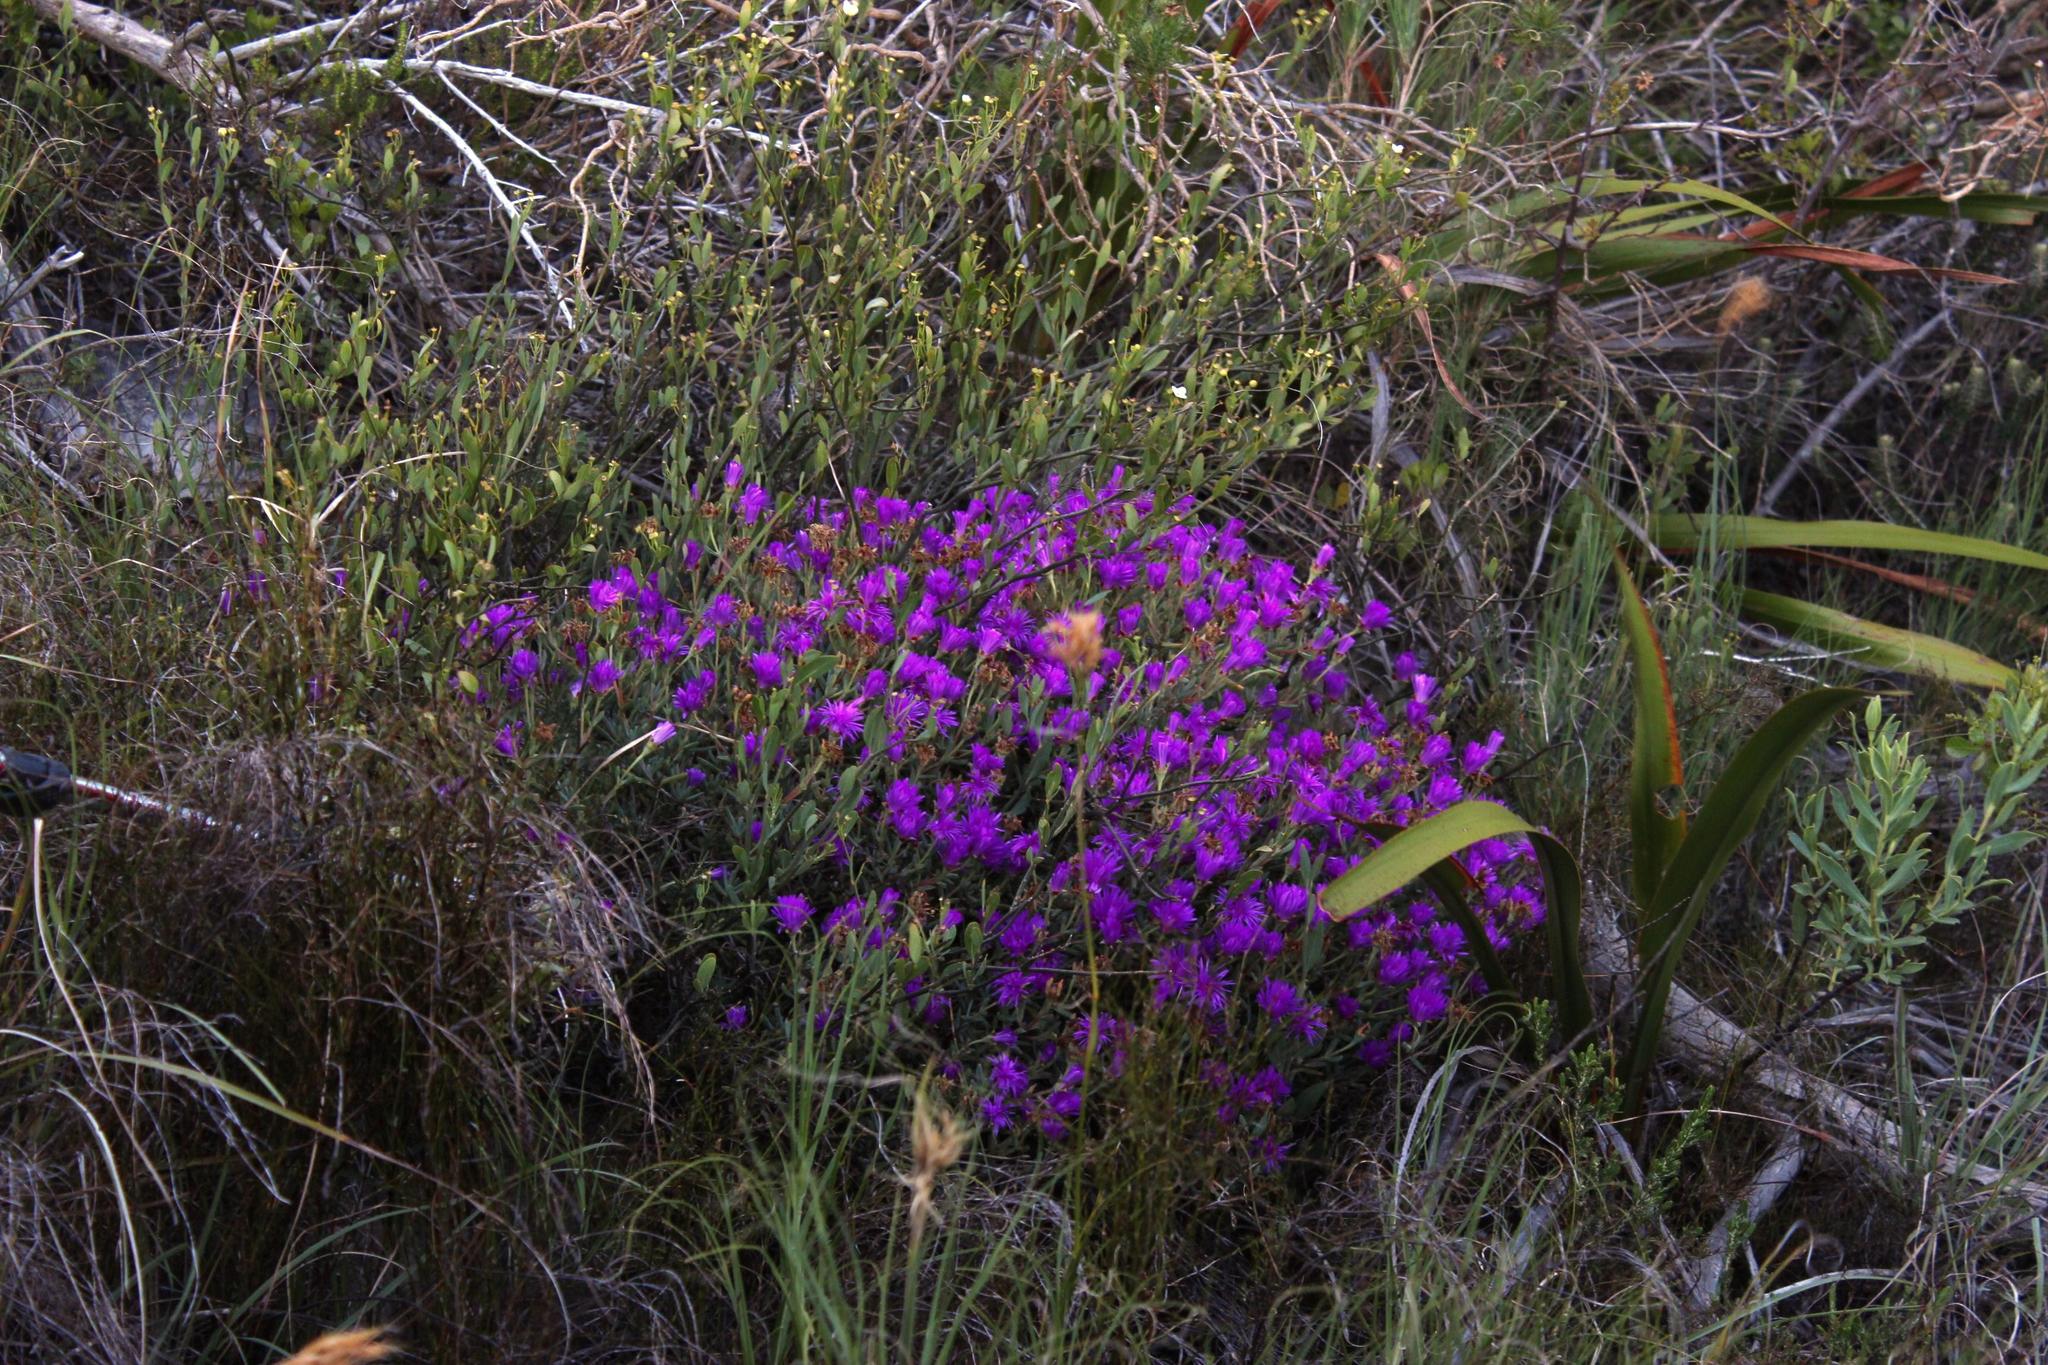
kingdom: Plantae
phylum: Tracheophyta
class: Magnoliopsida
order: Caryophyllales
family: Aizoaceae
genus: Lampranthus
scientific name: Lampranthus glomeratus
